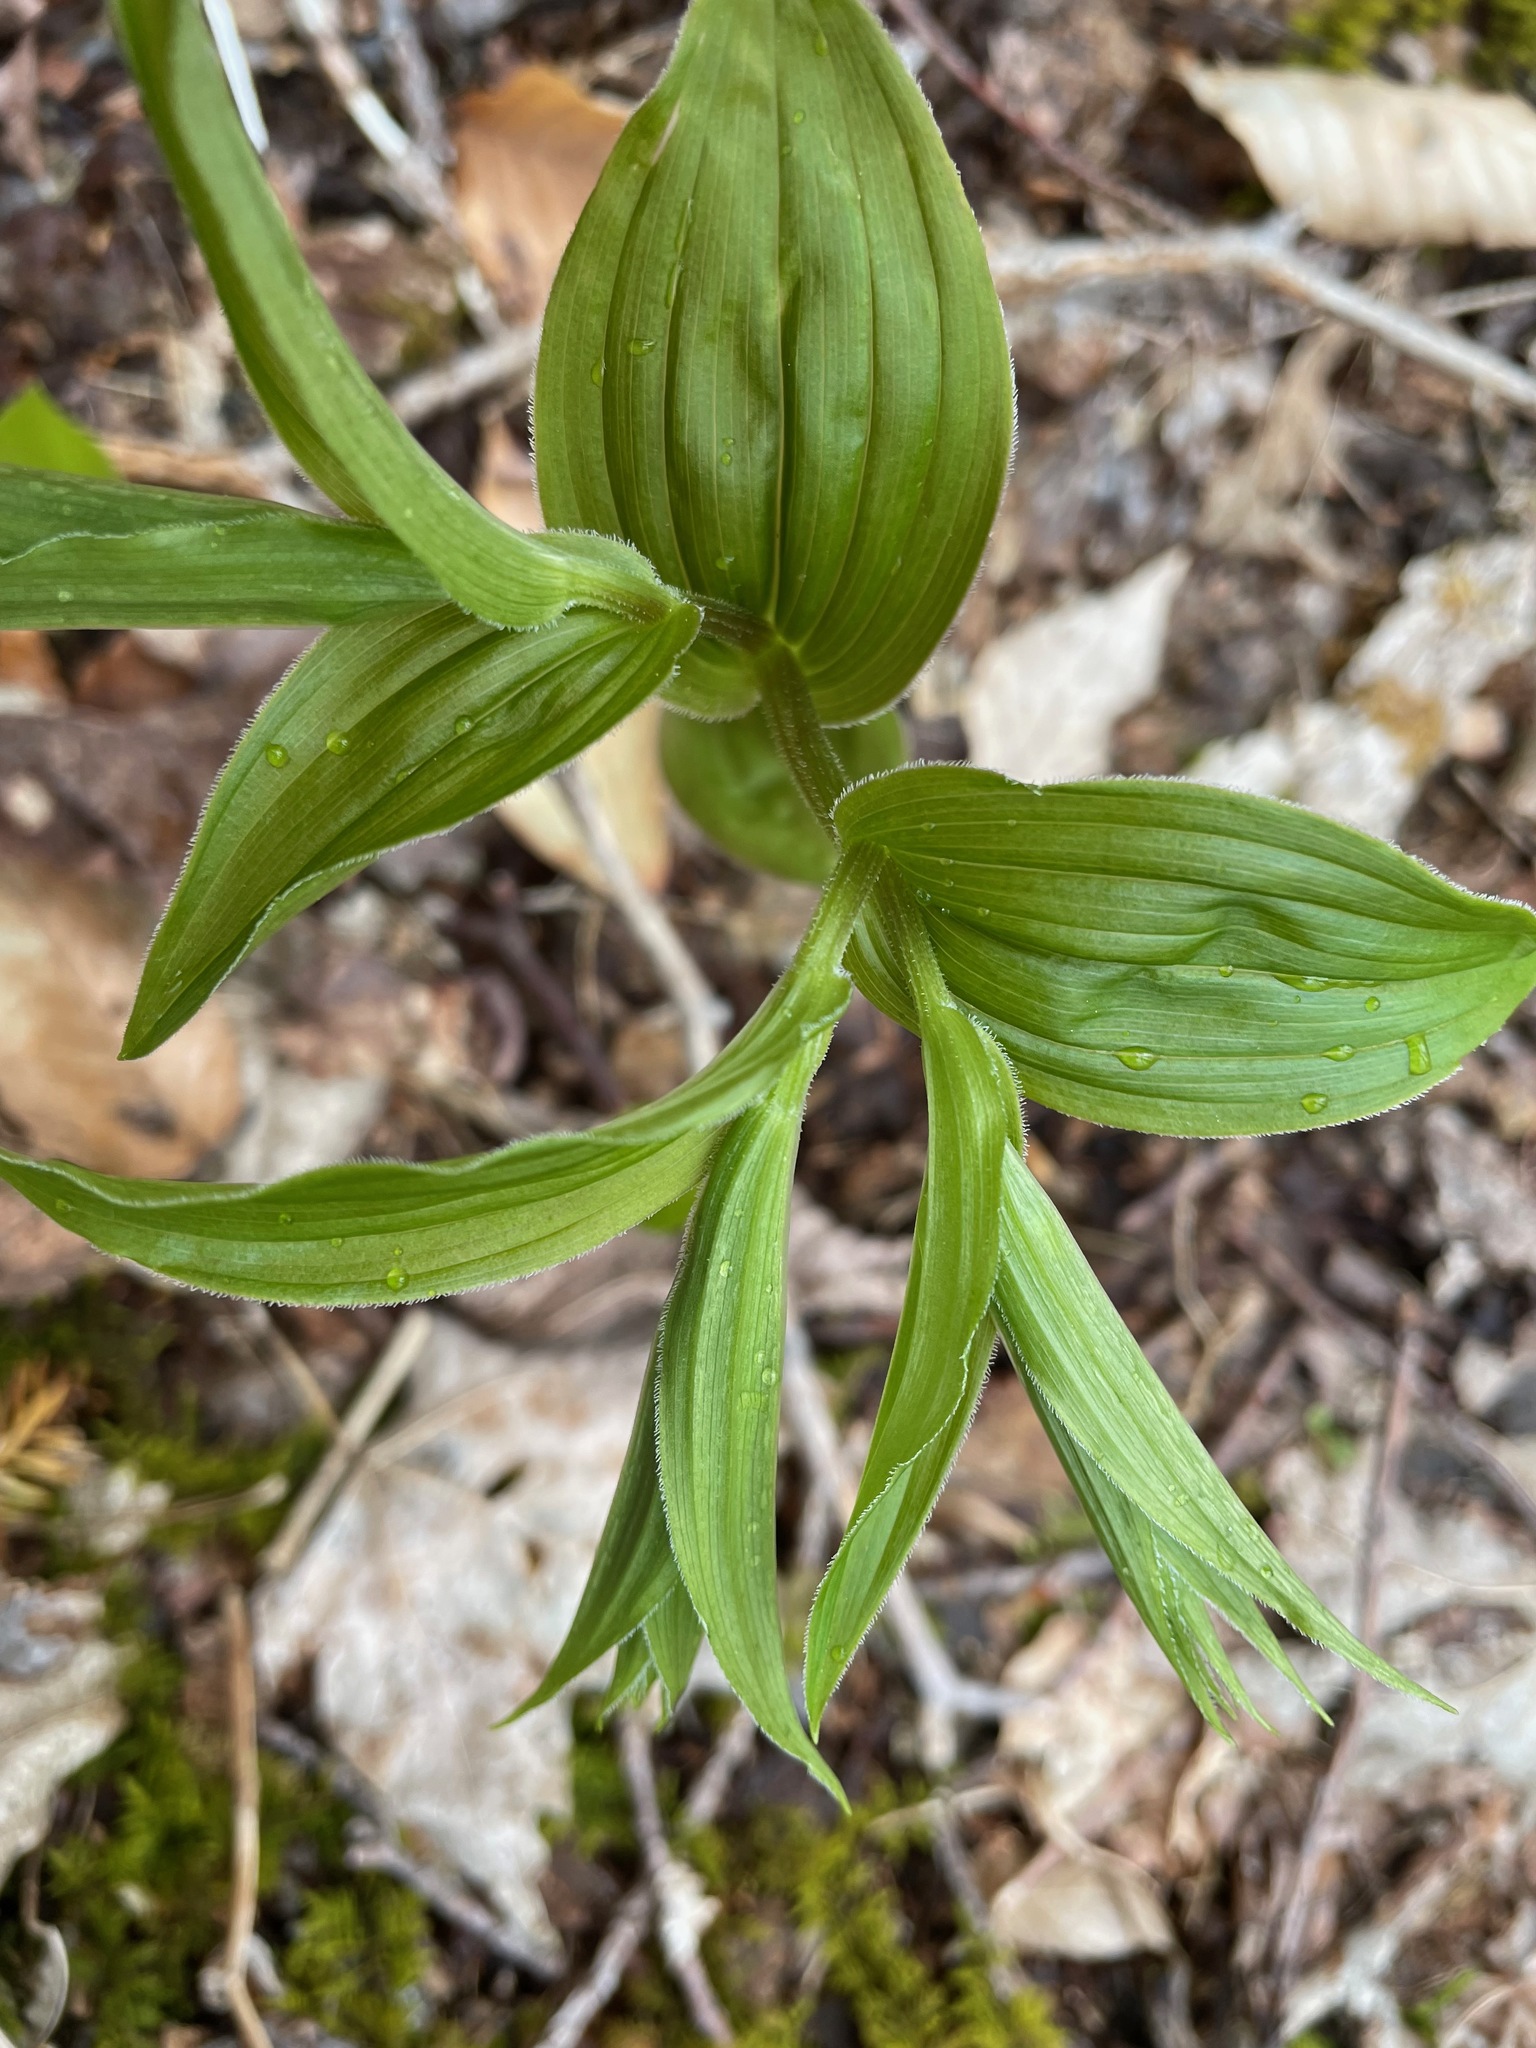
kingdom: Plantae
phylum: Tracheophyta
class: Liliopsida
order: Liliales
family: Liliaceae
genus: Streptopus
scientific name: Streptopus lanceolatus
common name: Rose mandarin
